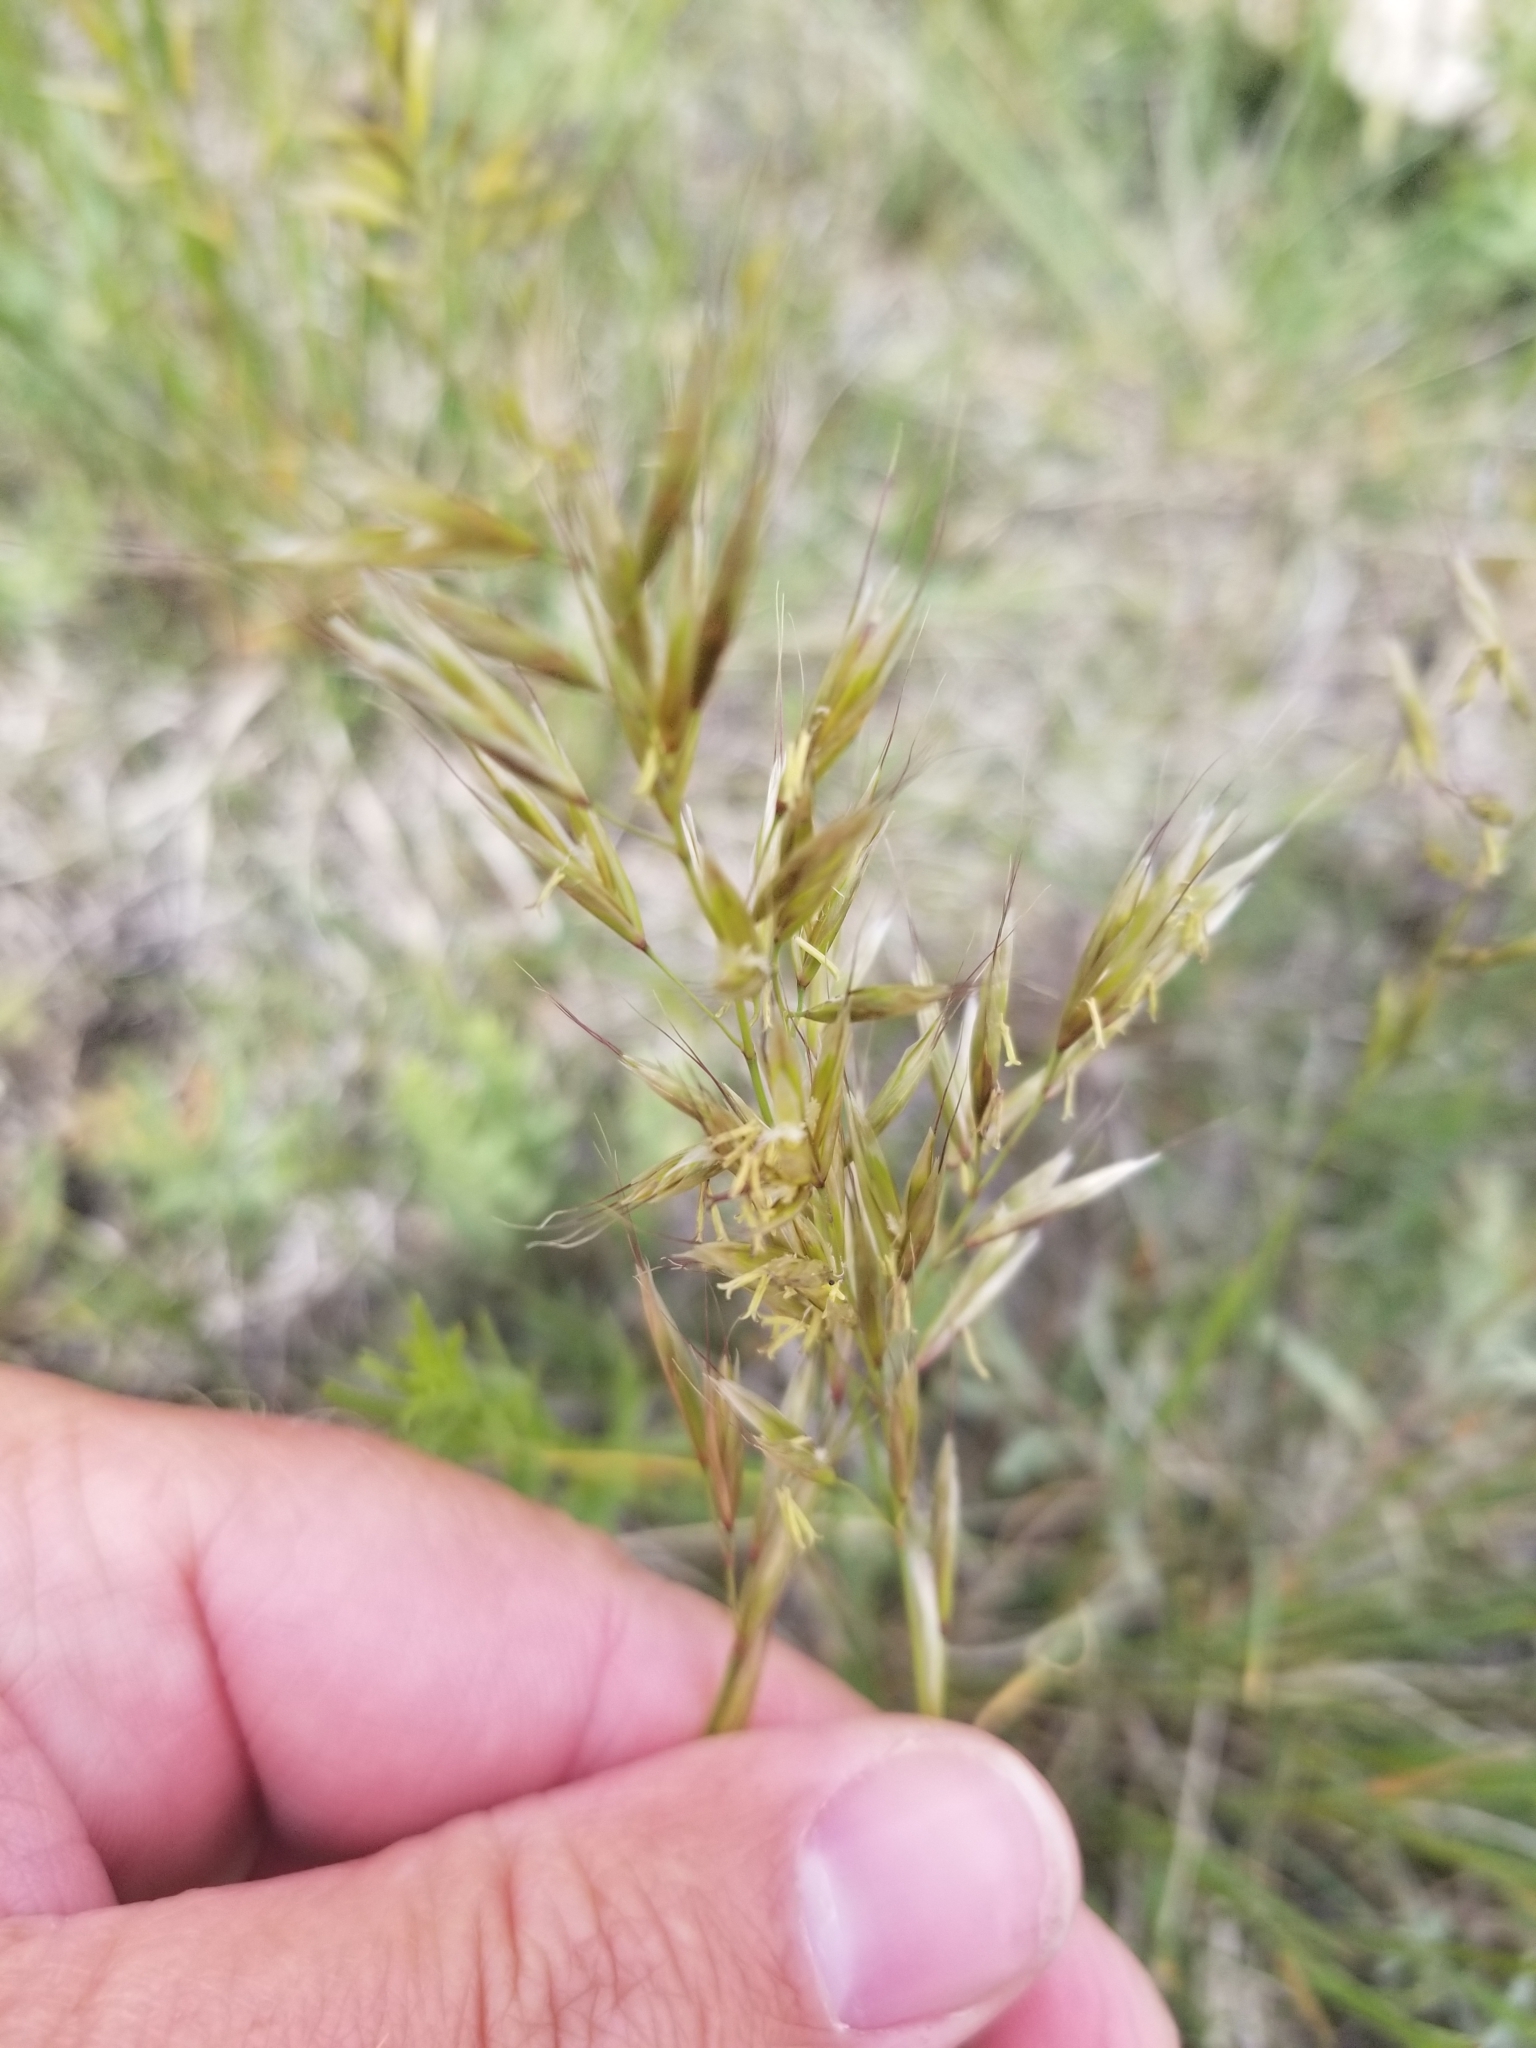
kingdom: Plantae
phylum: Tracheophyta
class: Liliopsida
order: Poales
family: Poaceae
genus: Helictochloa
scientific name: Helictochloa hookeri
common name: Hooker's alpine oatgrass
